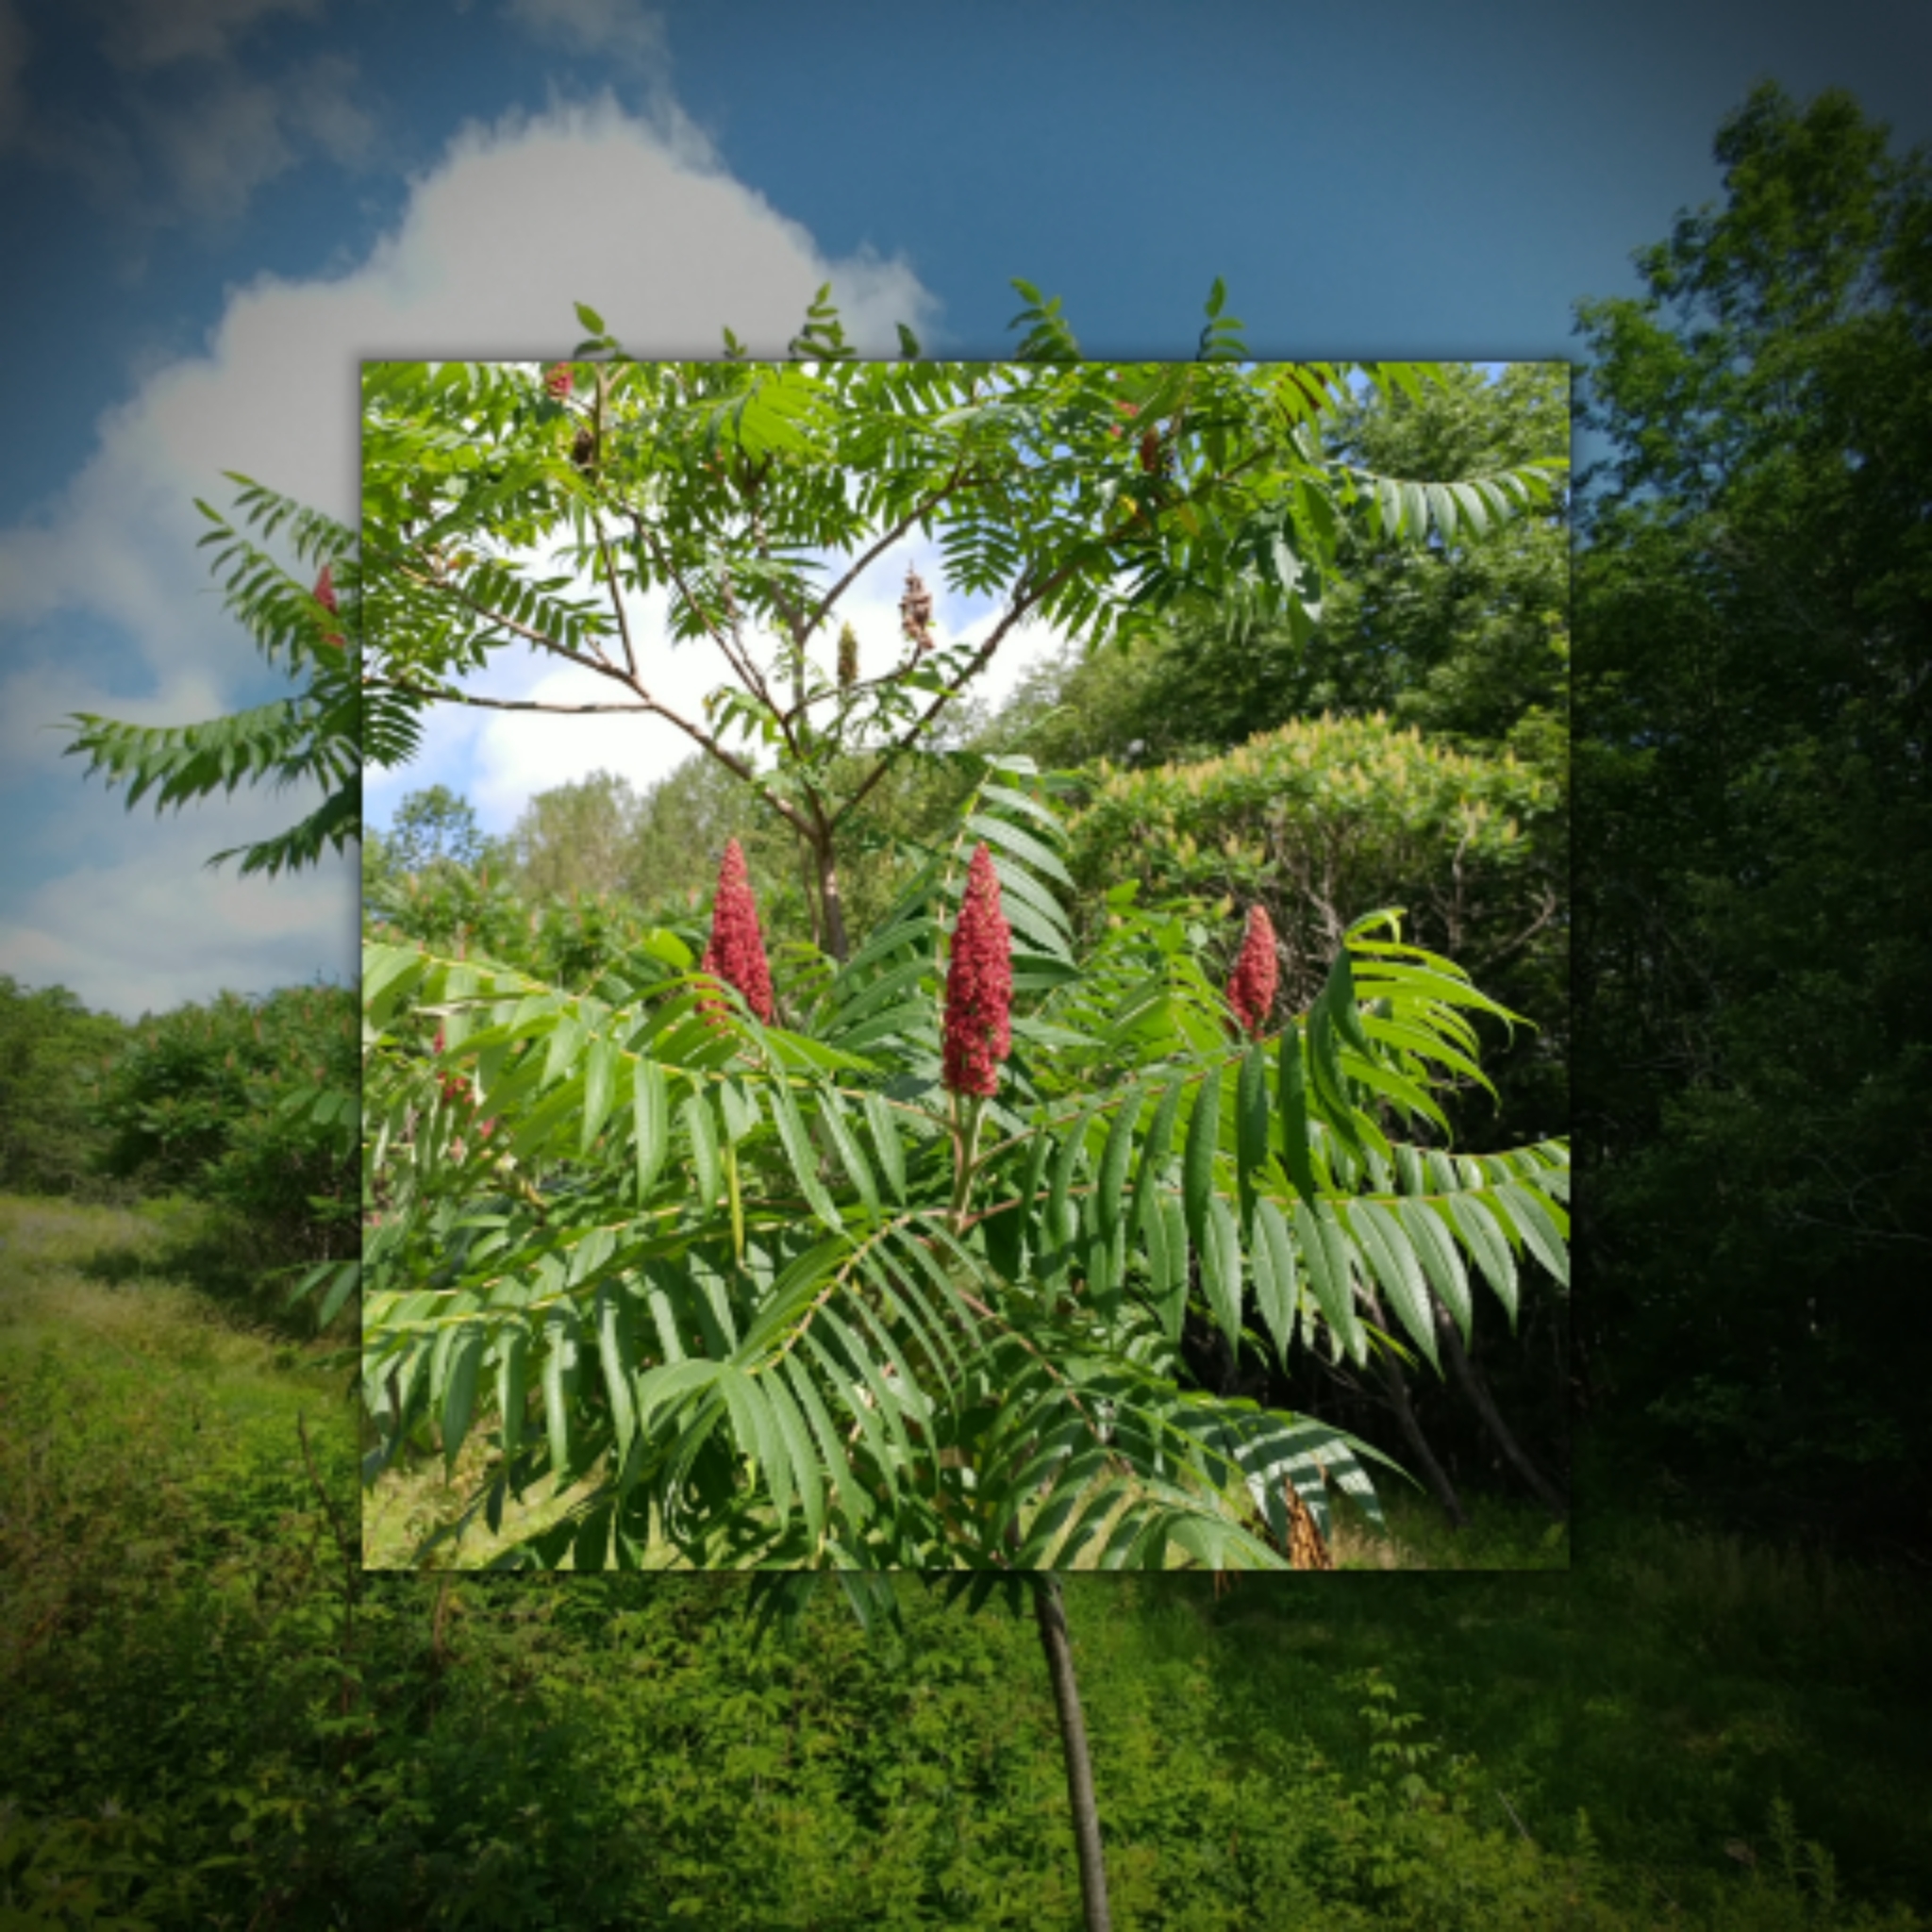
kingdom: Plantae
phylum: Tracheophyta
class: Magnoliopsida
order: Sapindales
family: Anacardiaceae
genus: Rhus
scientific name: Rhus typhina
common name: Staghorn sumac
